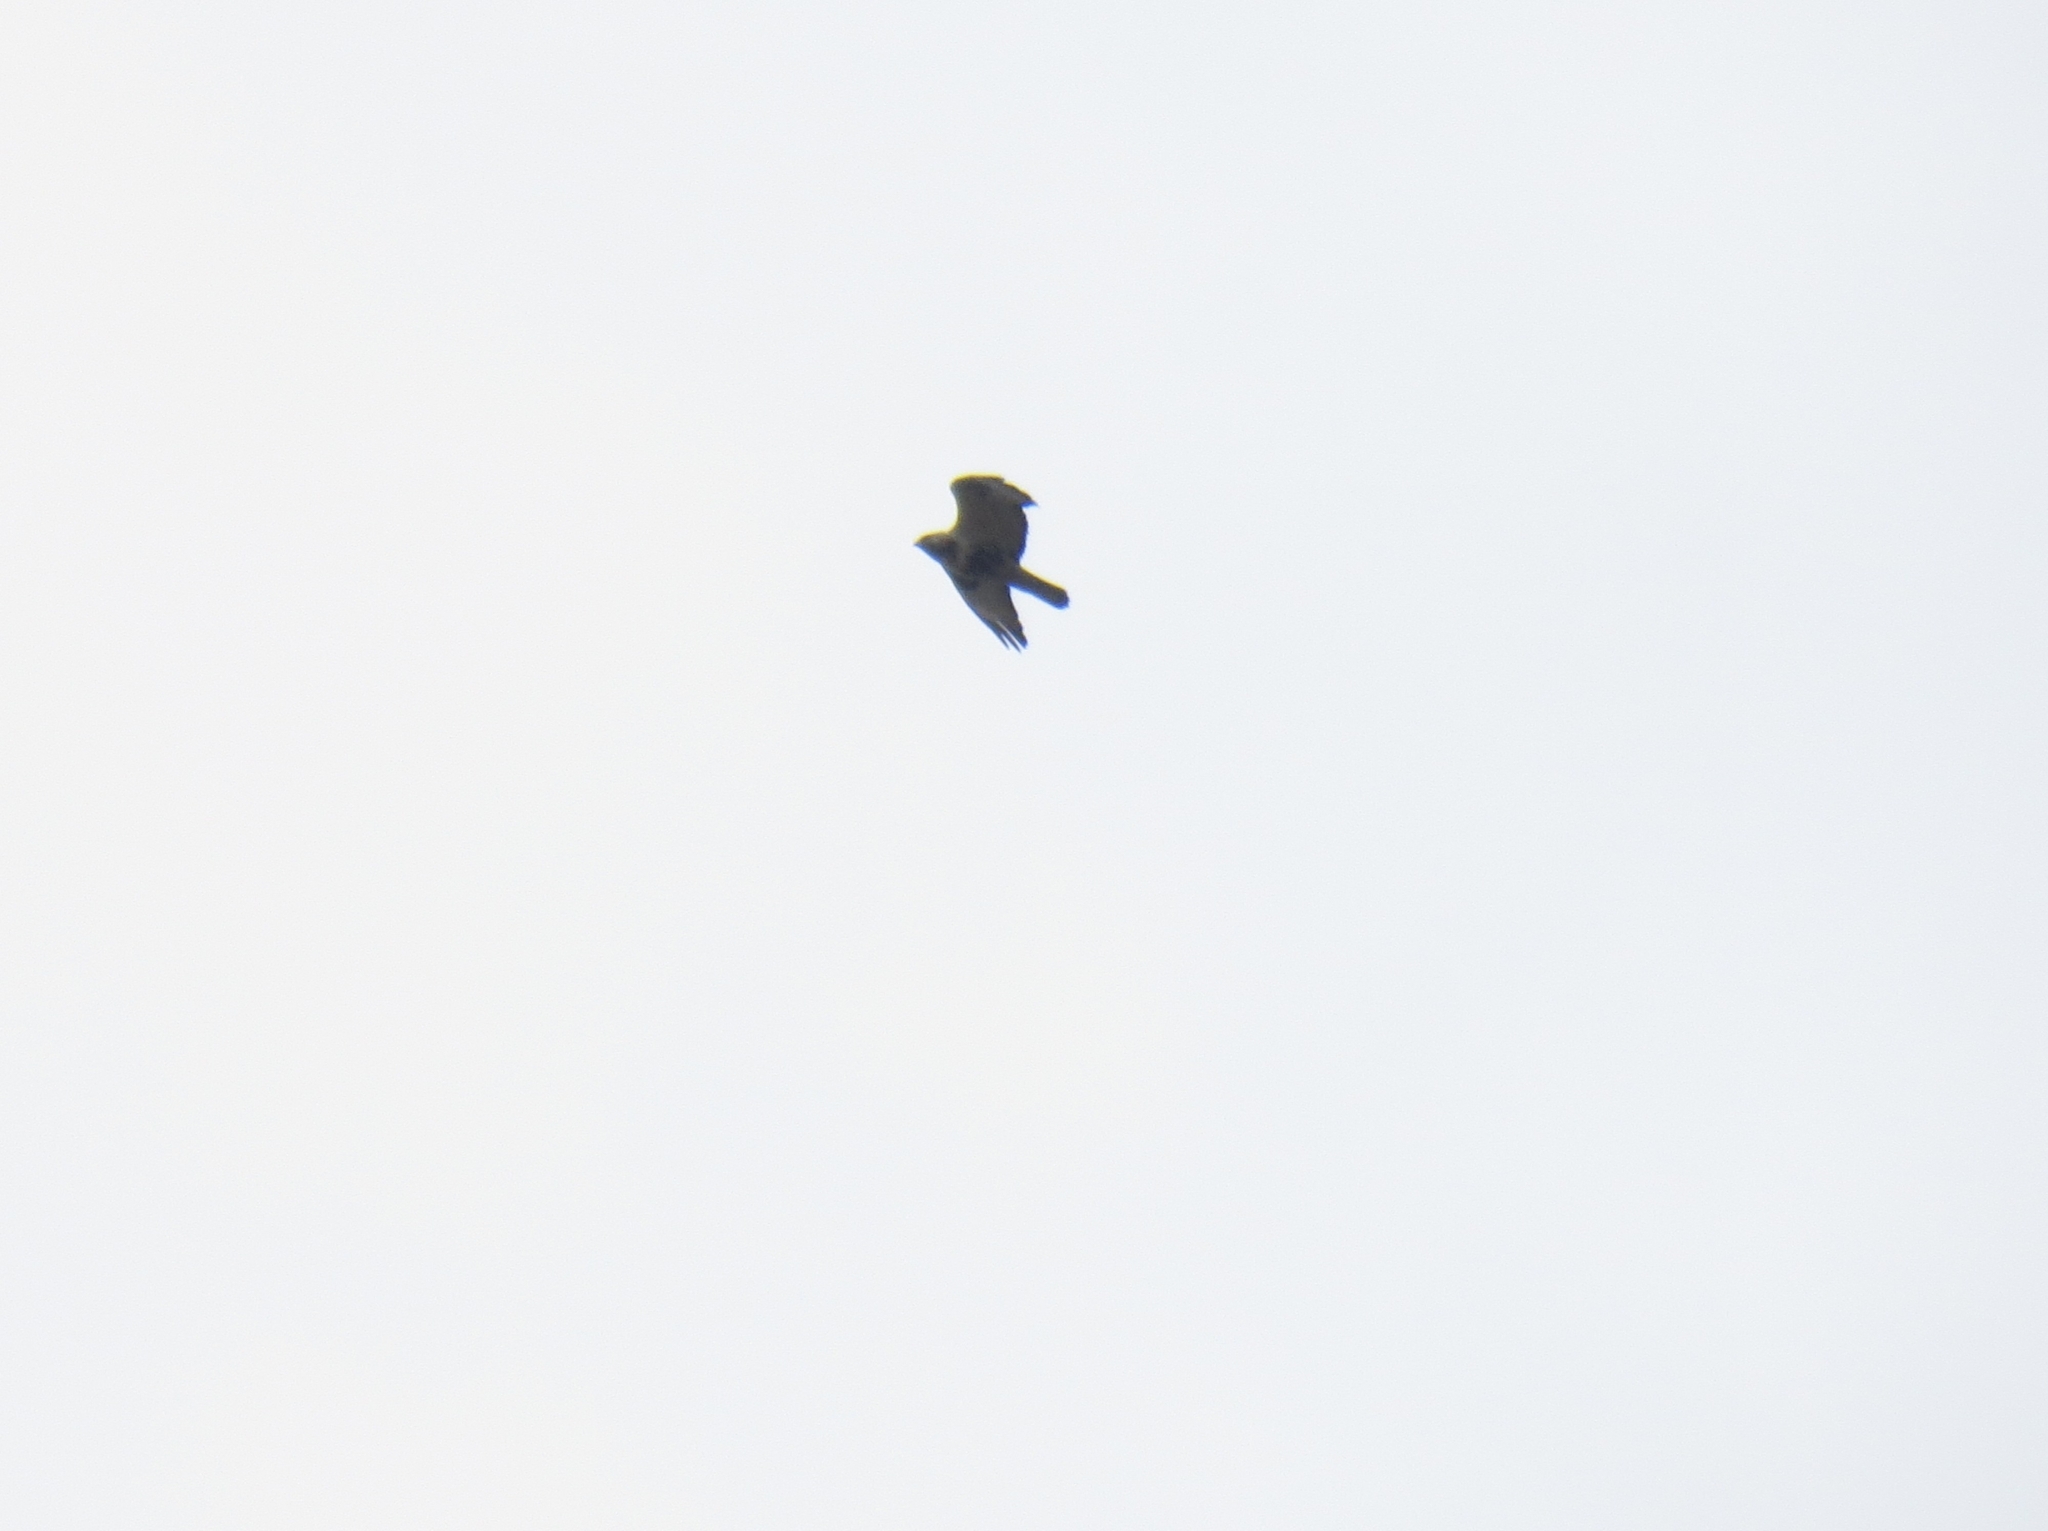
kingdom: Animalia
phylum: Chordata
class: Aves
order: Accipitriformes
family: Accipitridae
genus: Buteo
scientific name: Buteo lagopus
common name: Rough-legged buzzard
